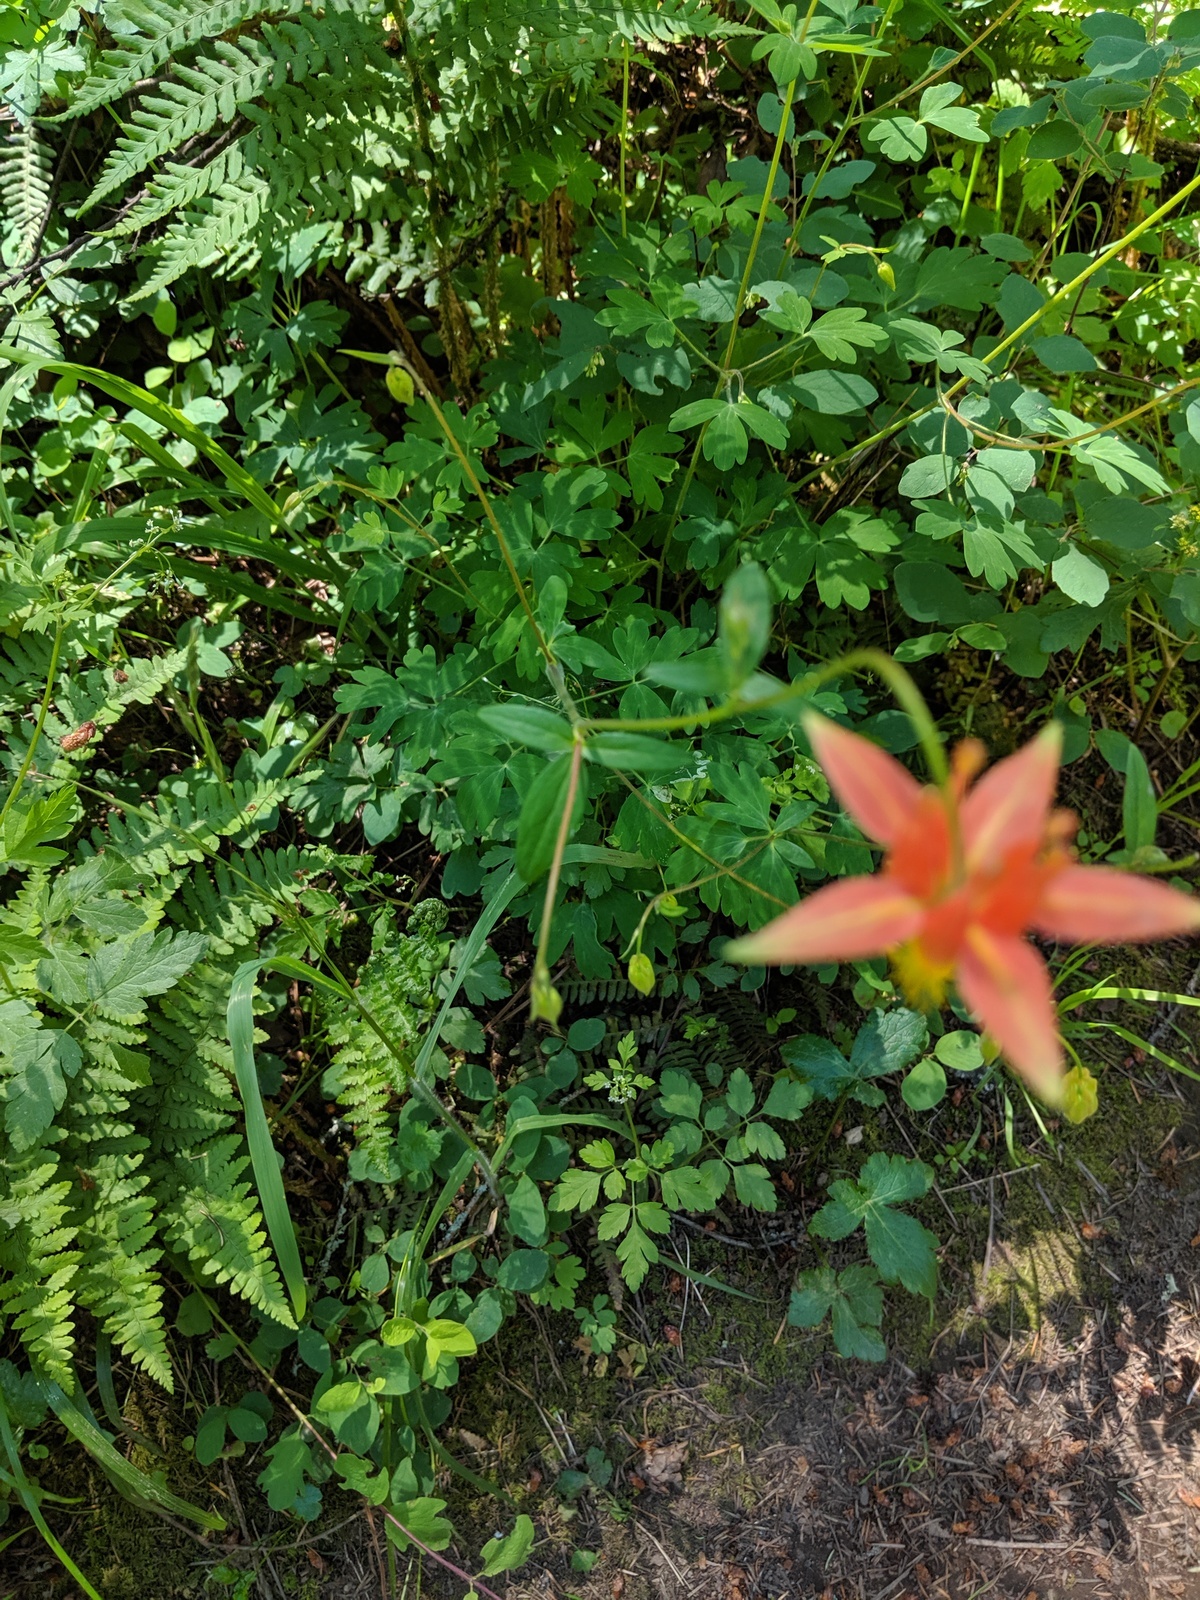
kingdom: Plantae
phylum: Tracheophyta
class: Magnoliopsida
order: Ranunculales
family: Ranunculaceae
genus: Aquilegia
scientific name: Aquilegia formosa
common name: Sitka columbine
